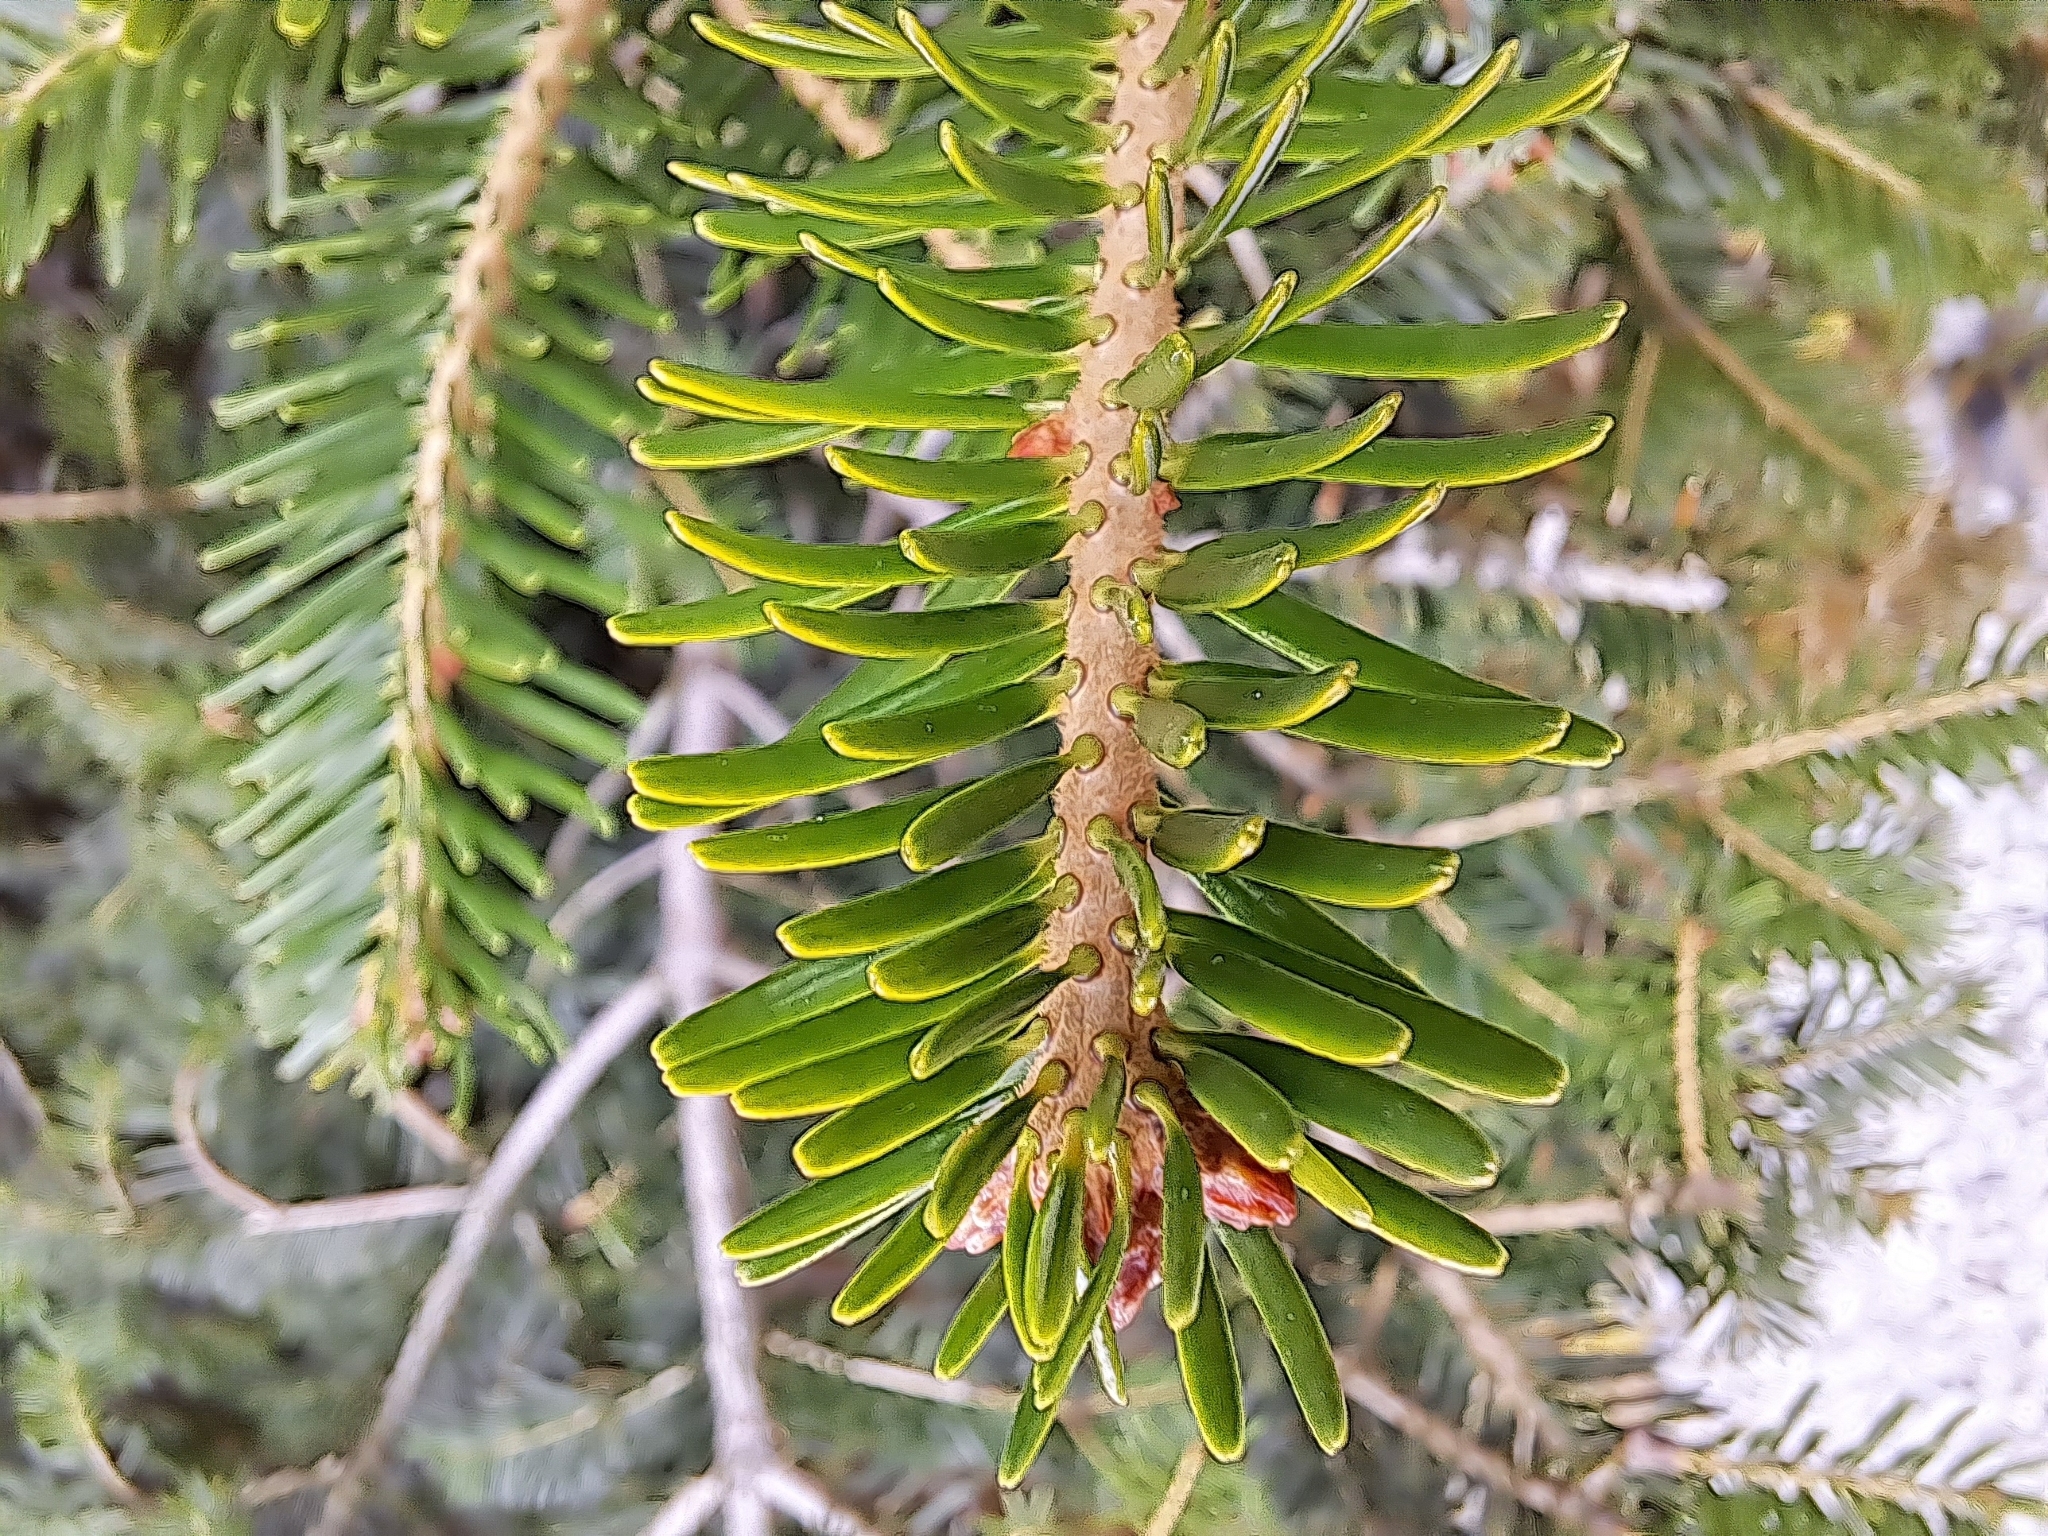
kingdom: Plantae
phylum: Tracheophyta
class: Pinopsida
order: Pinales
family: Pinaceae
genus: Abies
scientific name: Abies alba
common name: Silver fir
